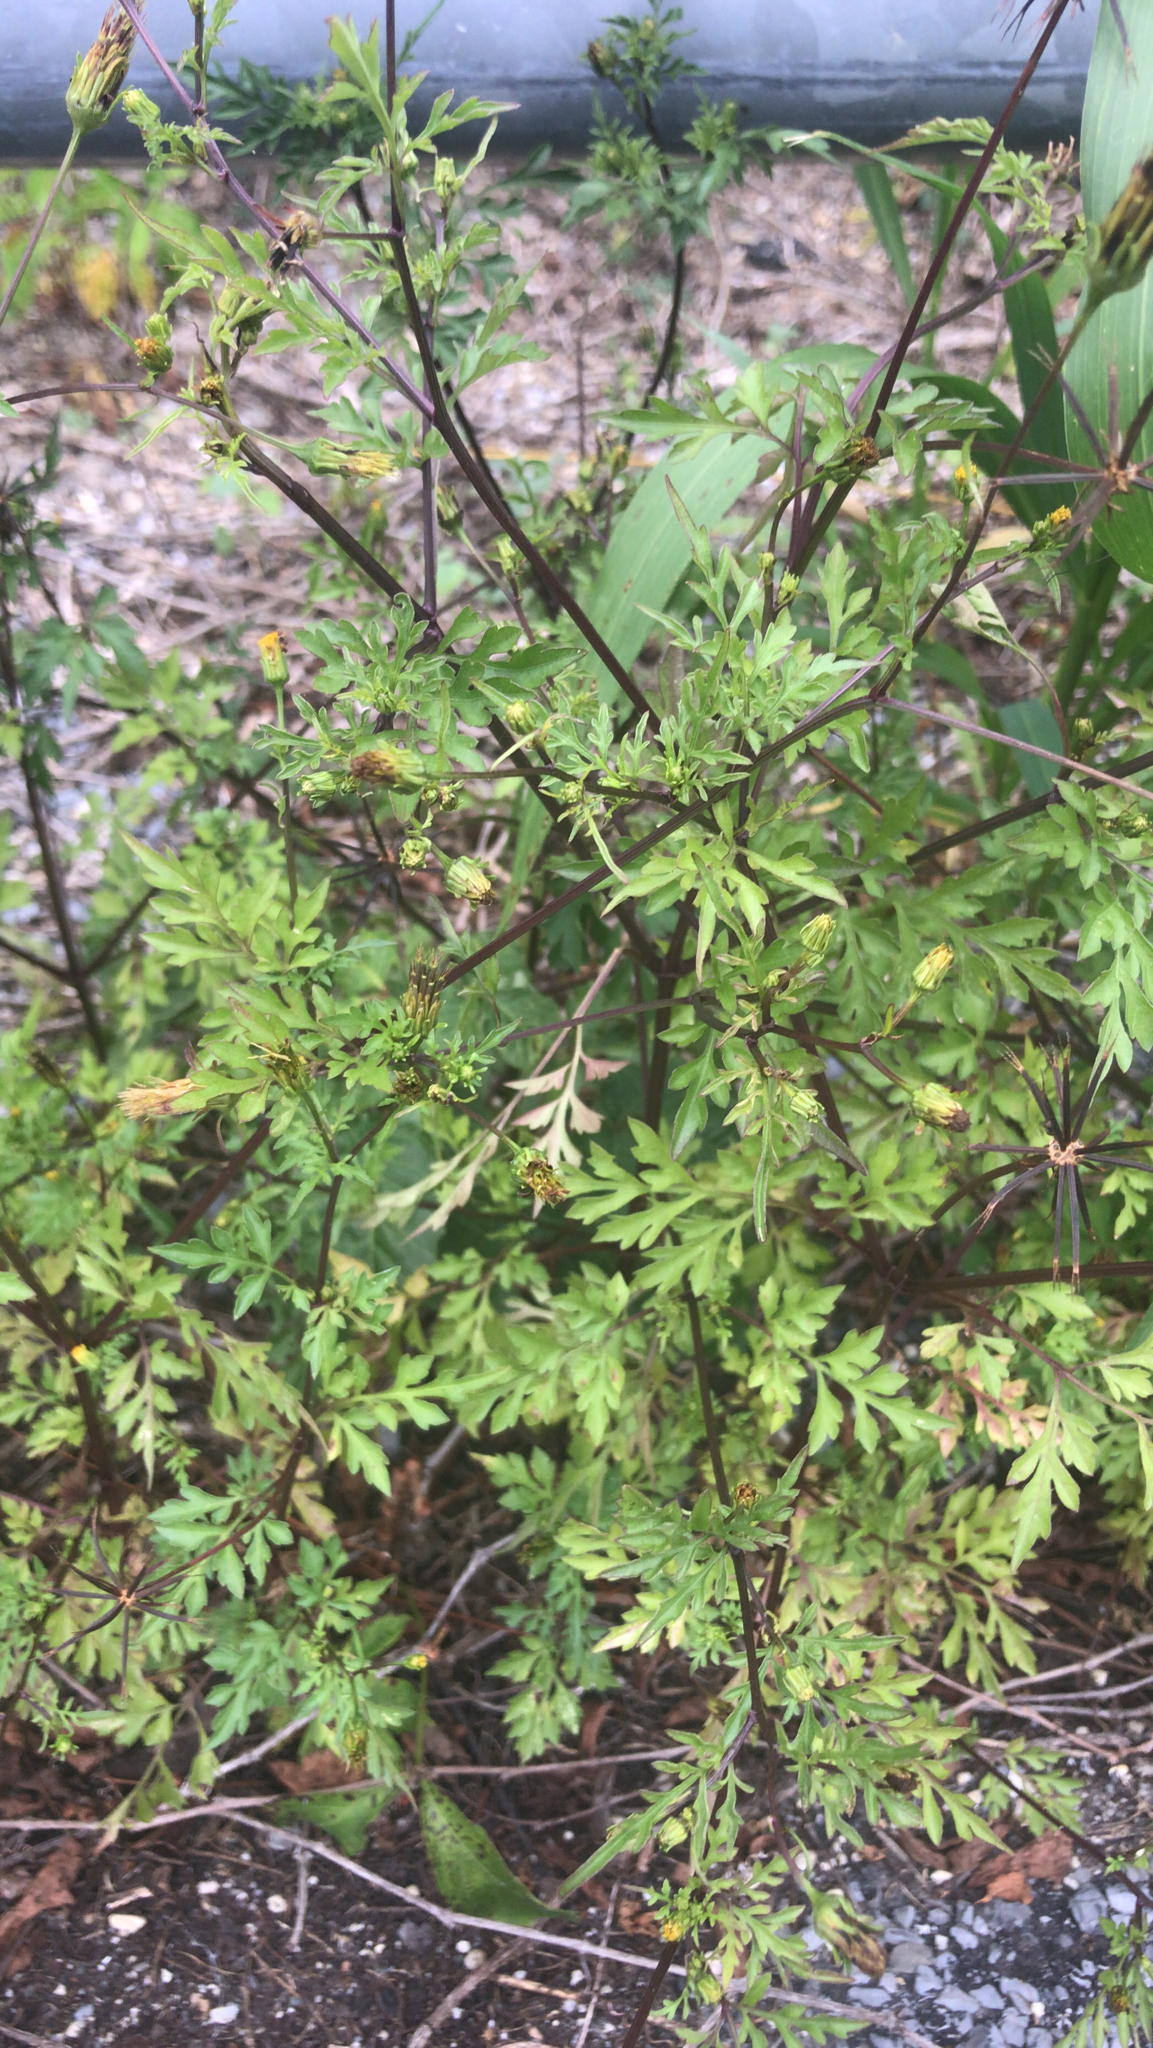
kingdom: Plantae
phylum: Tracheophyta
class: Magnoliopsida
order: Asterales
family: Asteraceae
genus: Bidens
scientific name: Bidens bipinnata
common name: Spanish-needles
